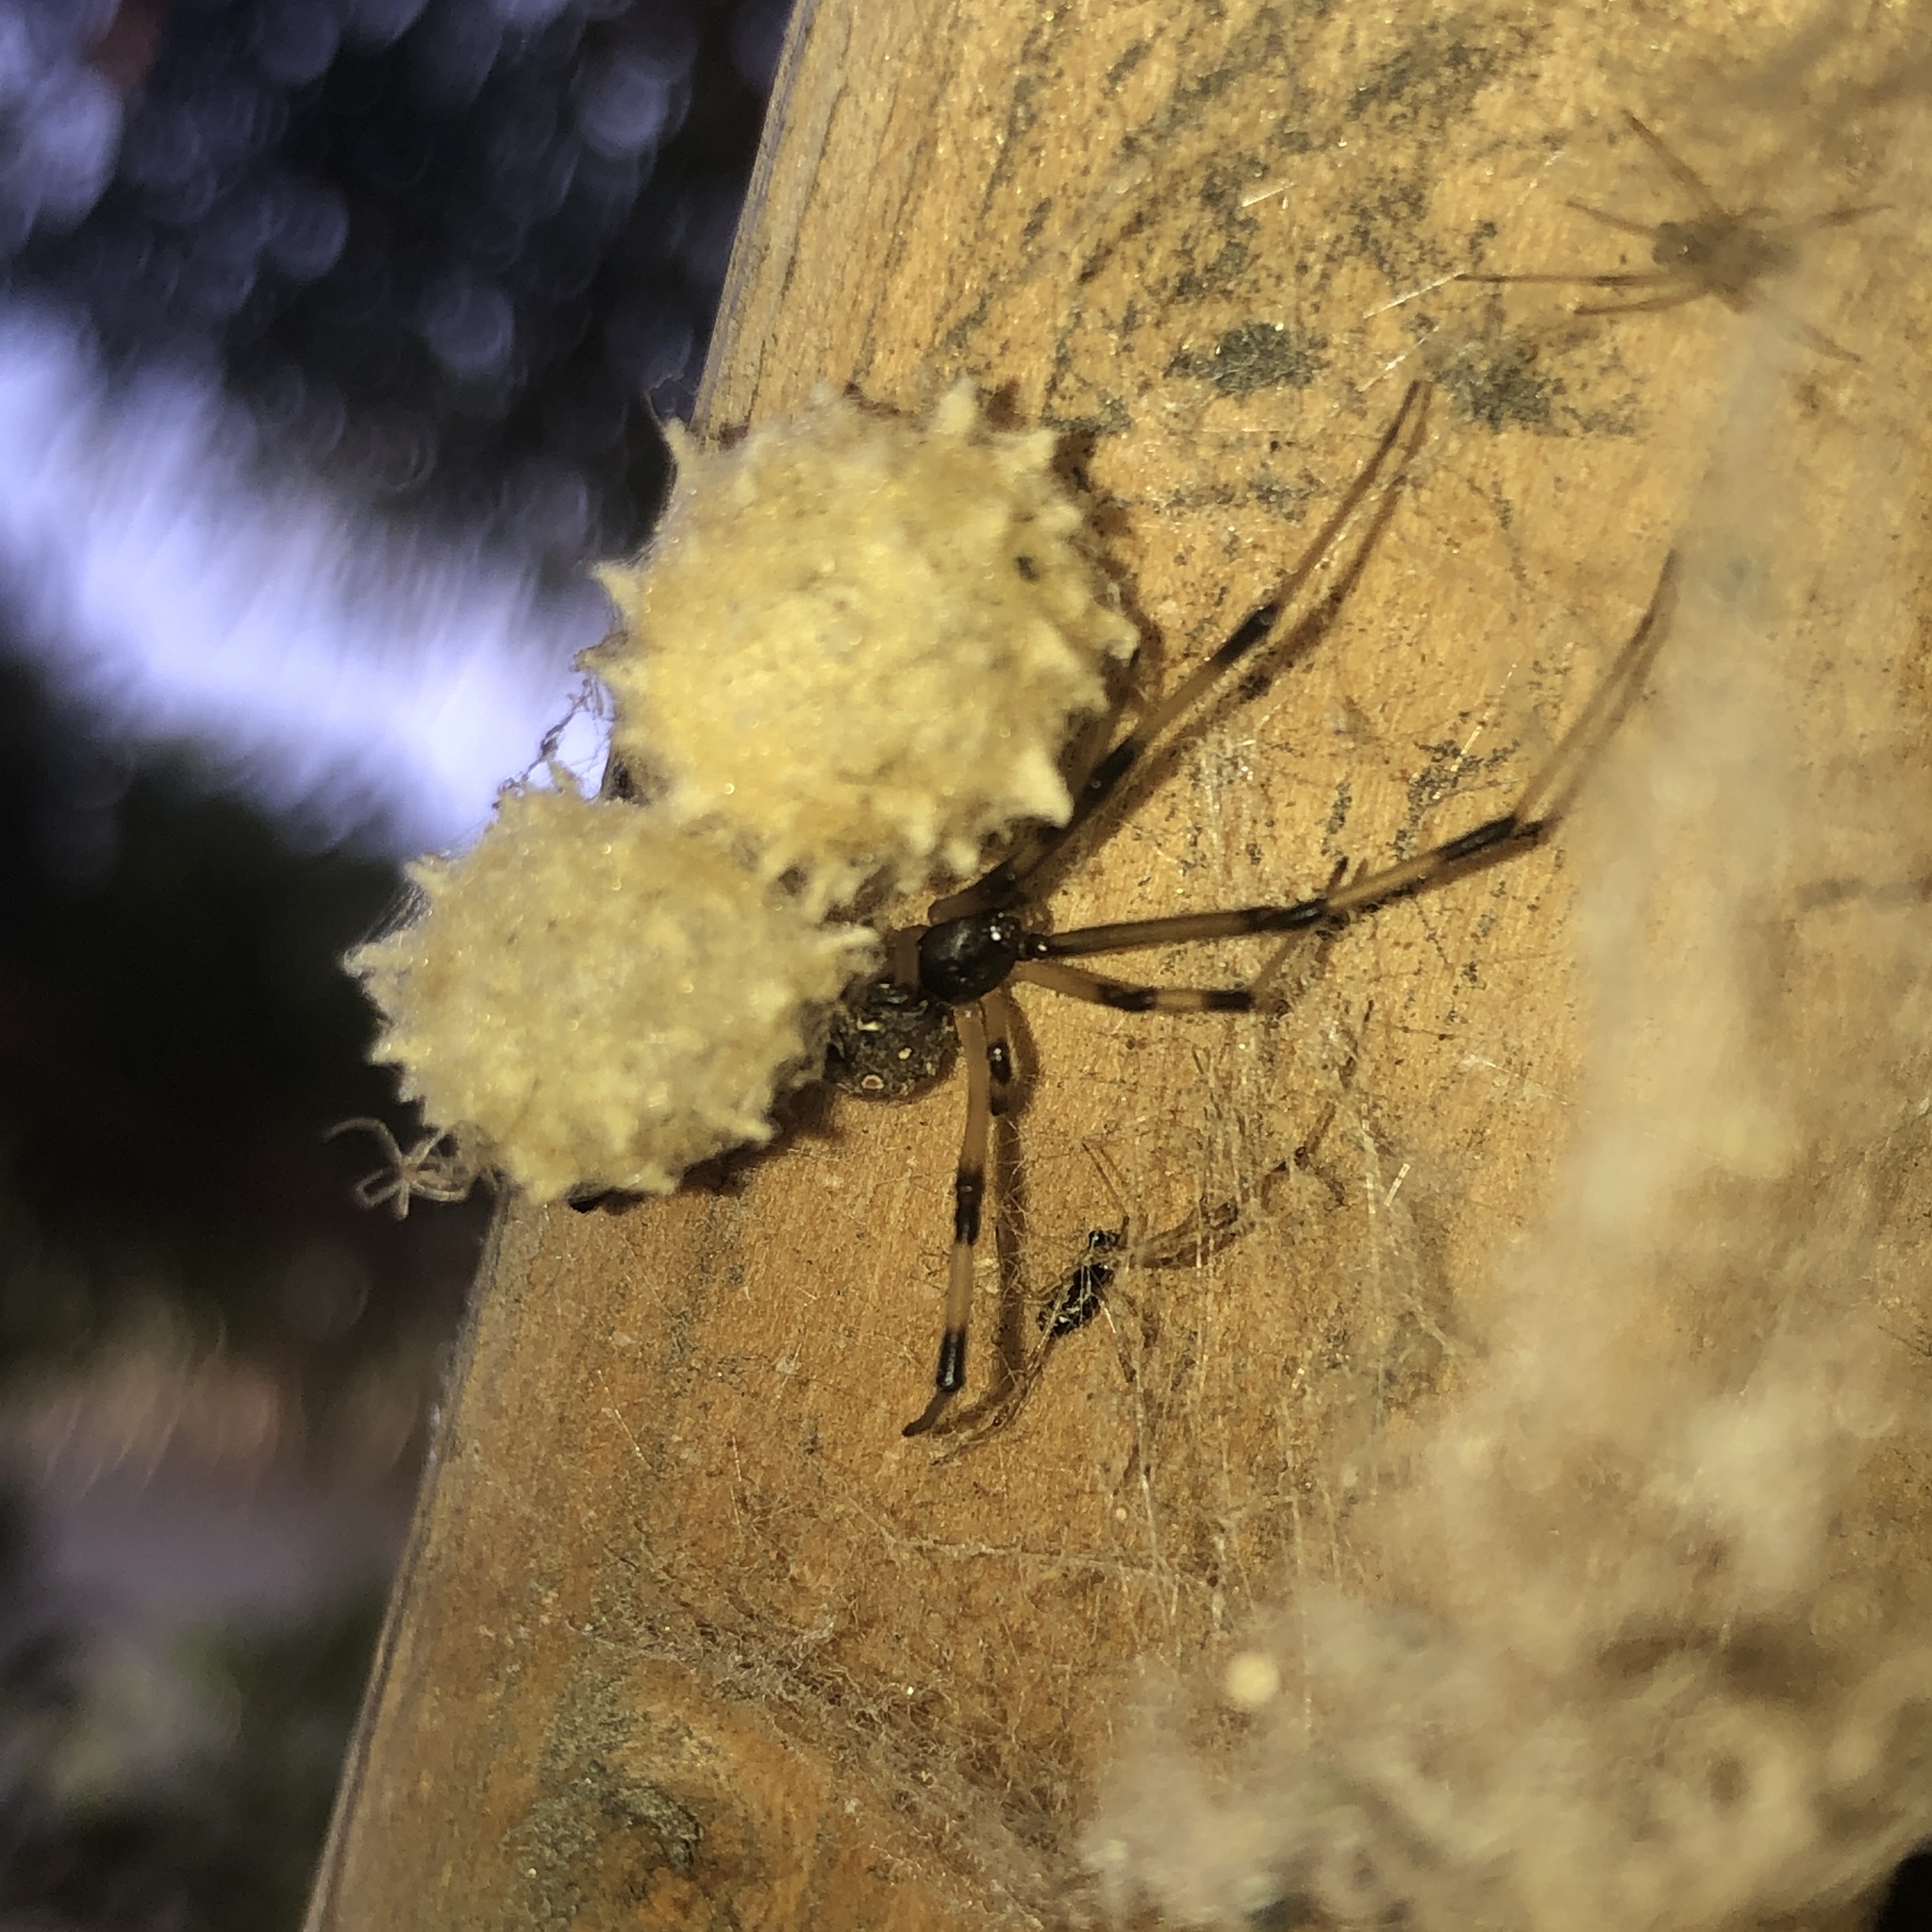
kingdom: Animalia
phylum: Arthropoda
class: Arachnida
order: Araneae
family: Theridiidae
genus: Latrodectus
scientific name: Latrodectus geometricus
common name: Brown widow spider
